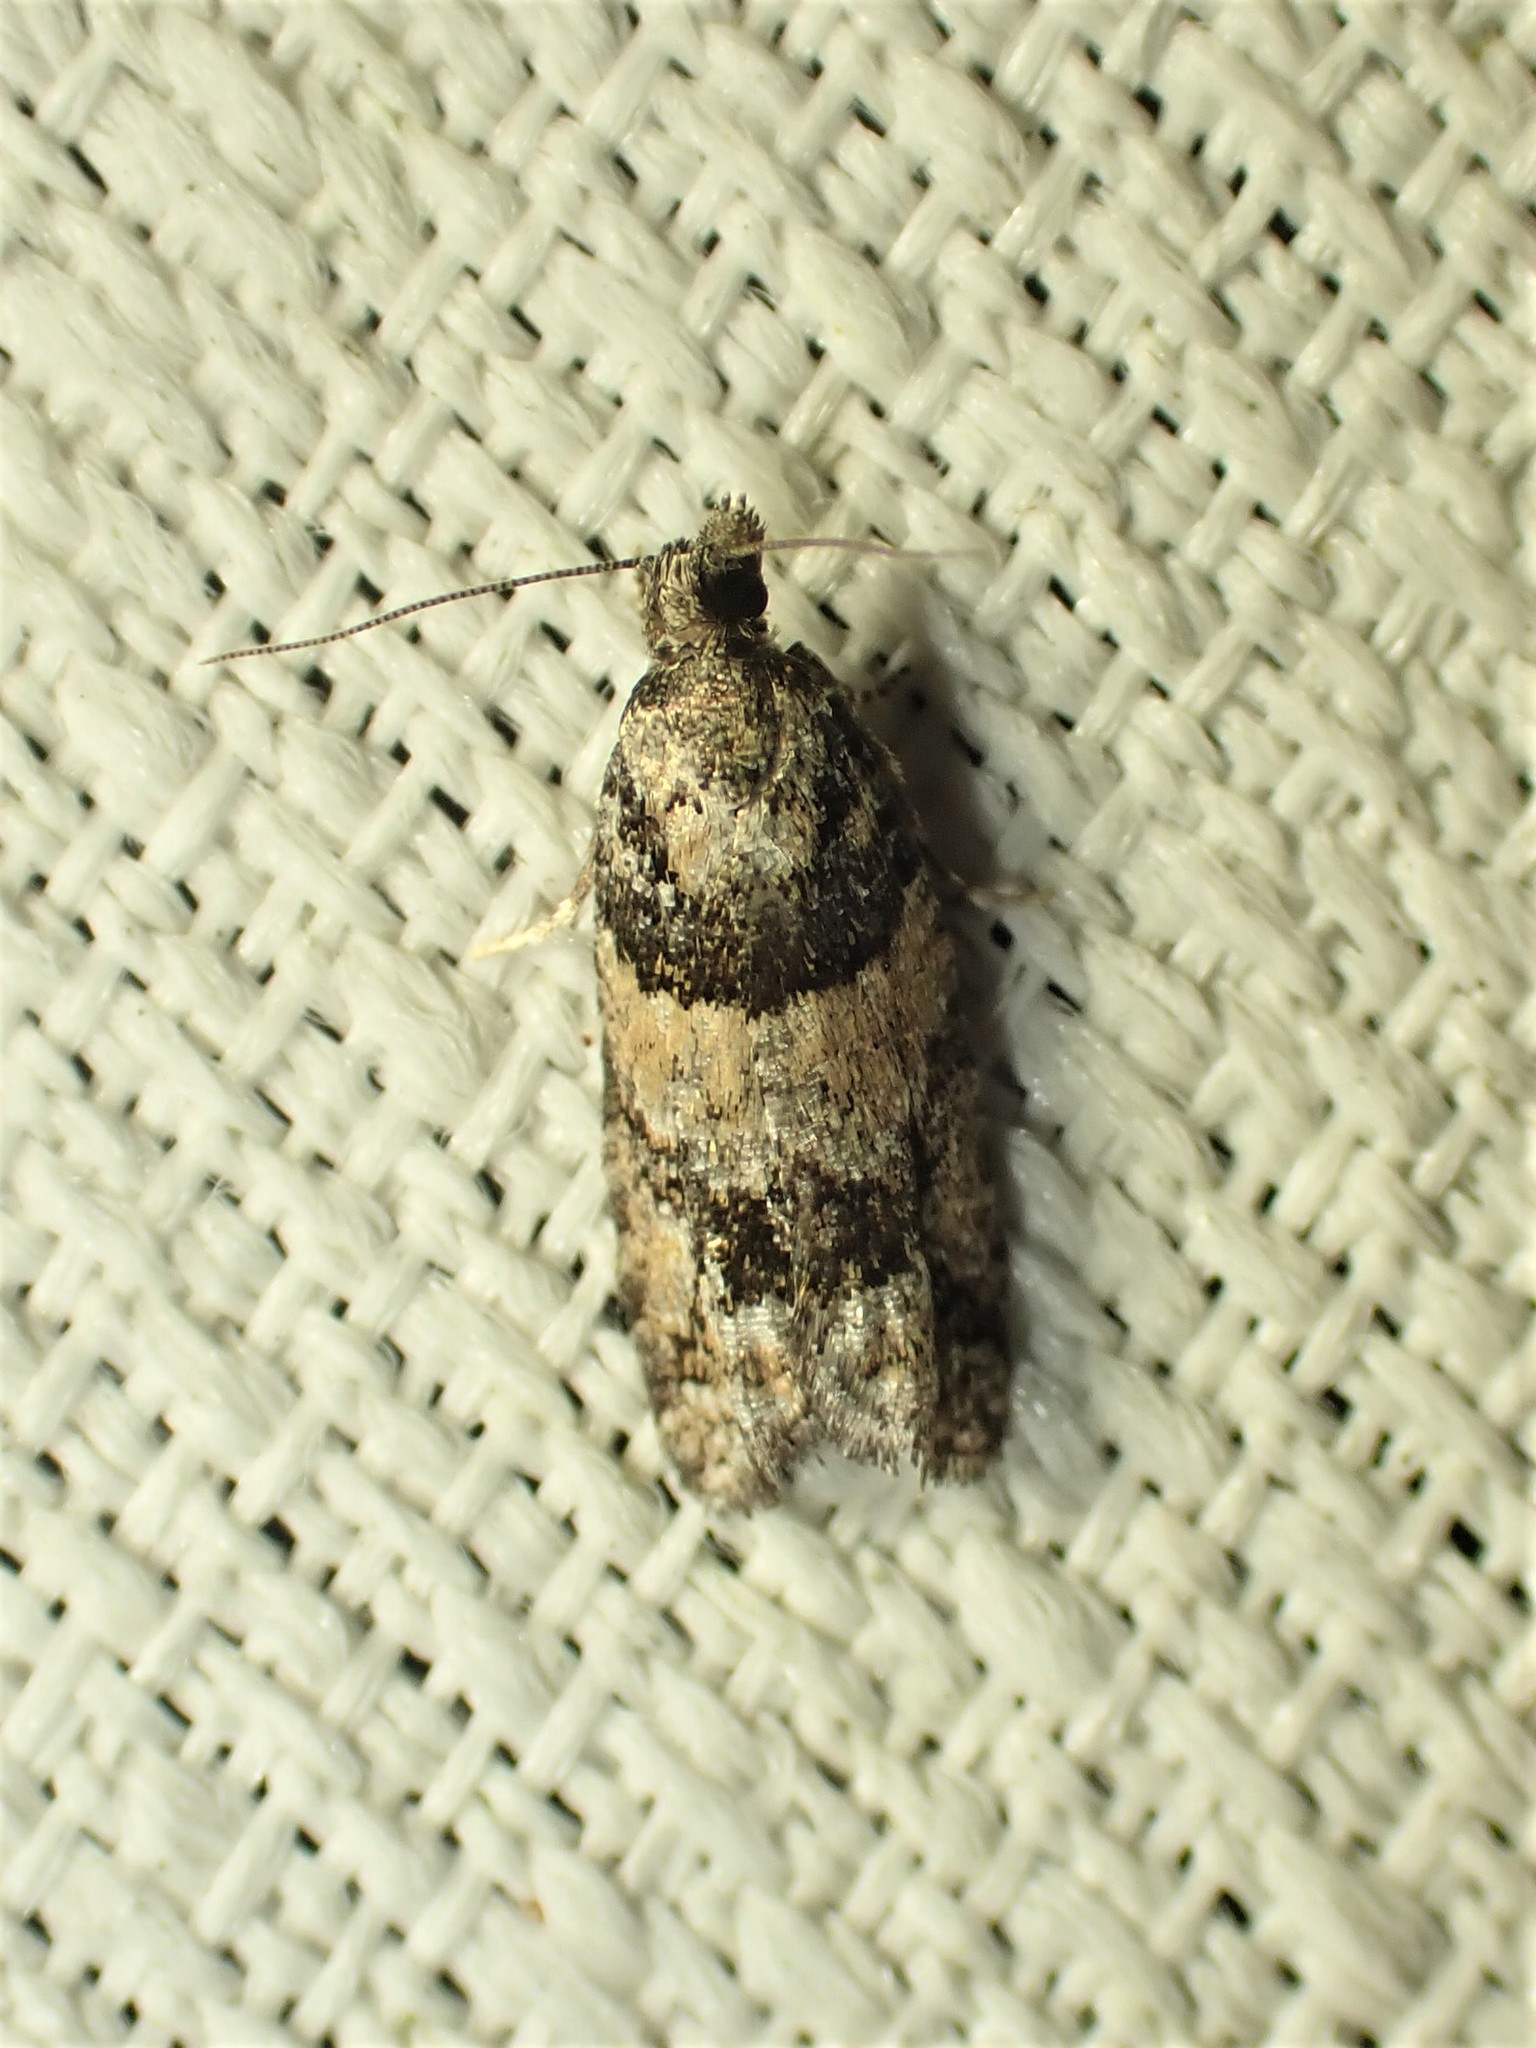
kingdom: Animalia
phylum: Arthropoda
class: Insecta
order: Lepidoptera
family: Tortricidae
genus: Epinotia
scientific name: Epinotia radicana
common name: Red-striped needleworm moth
